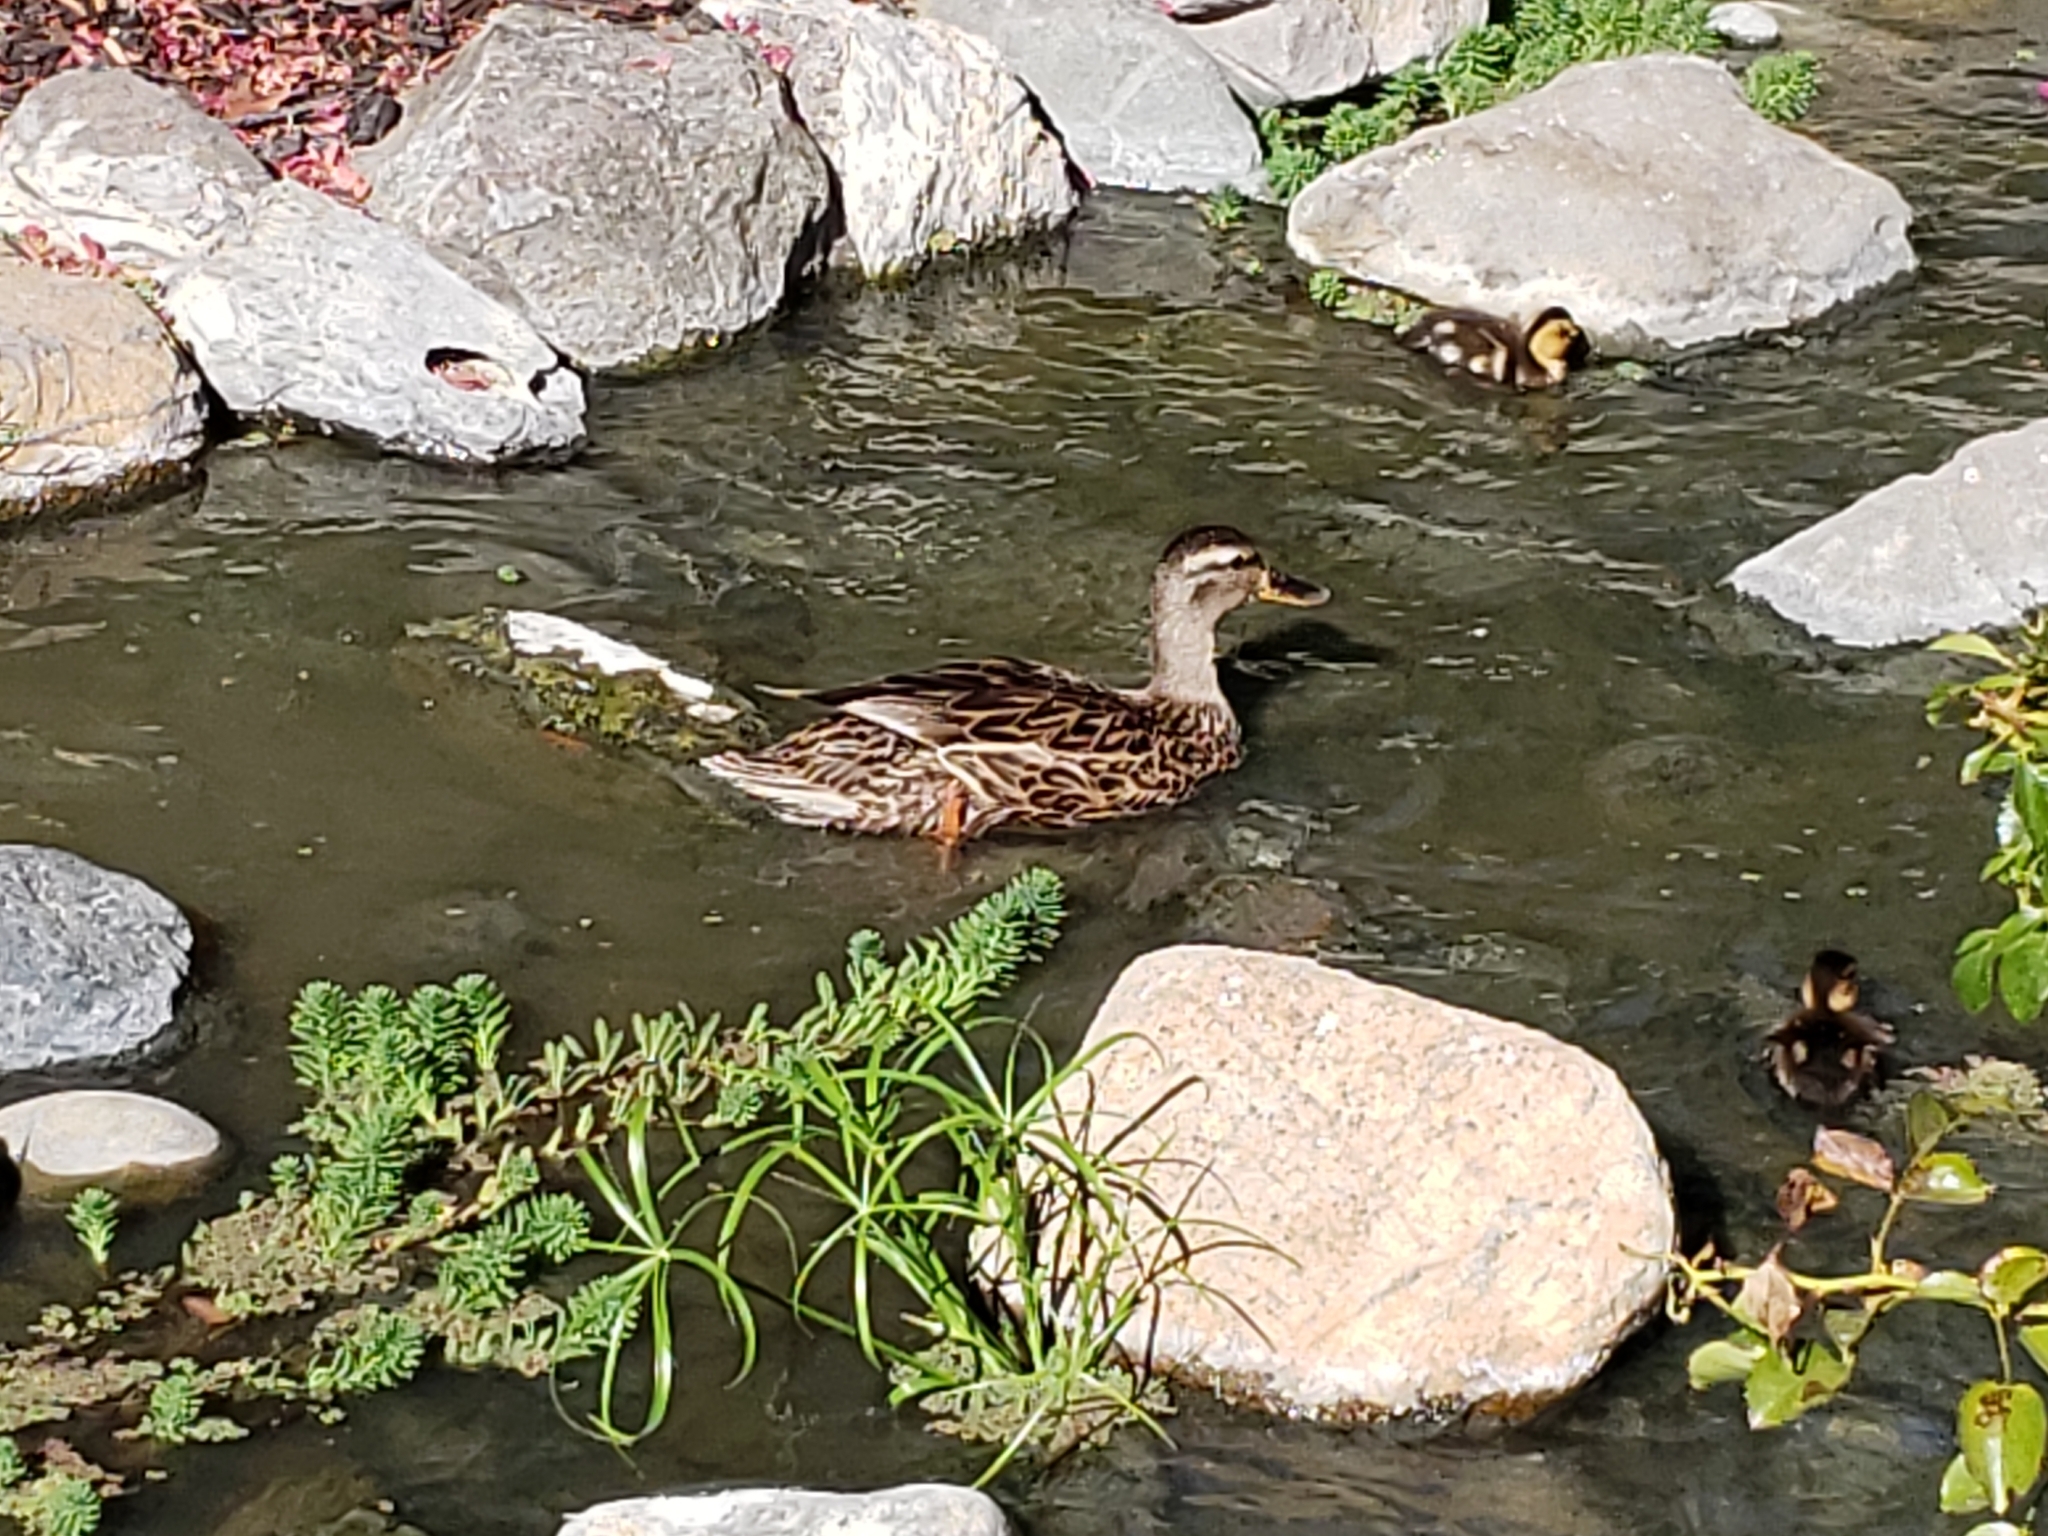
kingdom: Animalia
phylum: Chordata
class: Aves
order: Anseriformes
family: Anatidae
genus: Anas
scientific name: Anas platyrhynchos
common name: Mallard
